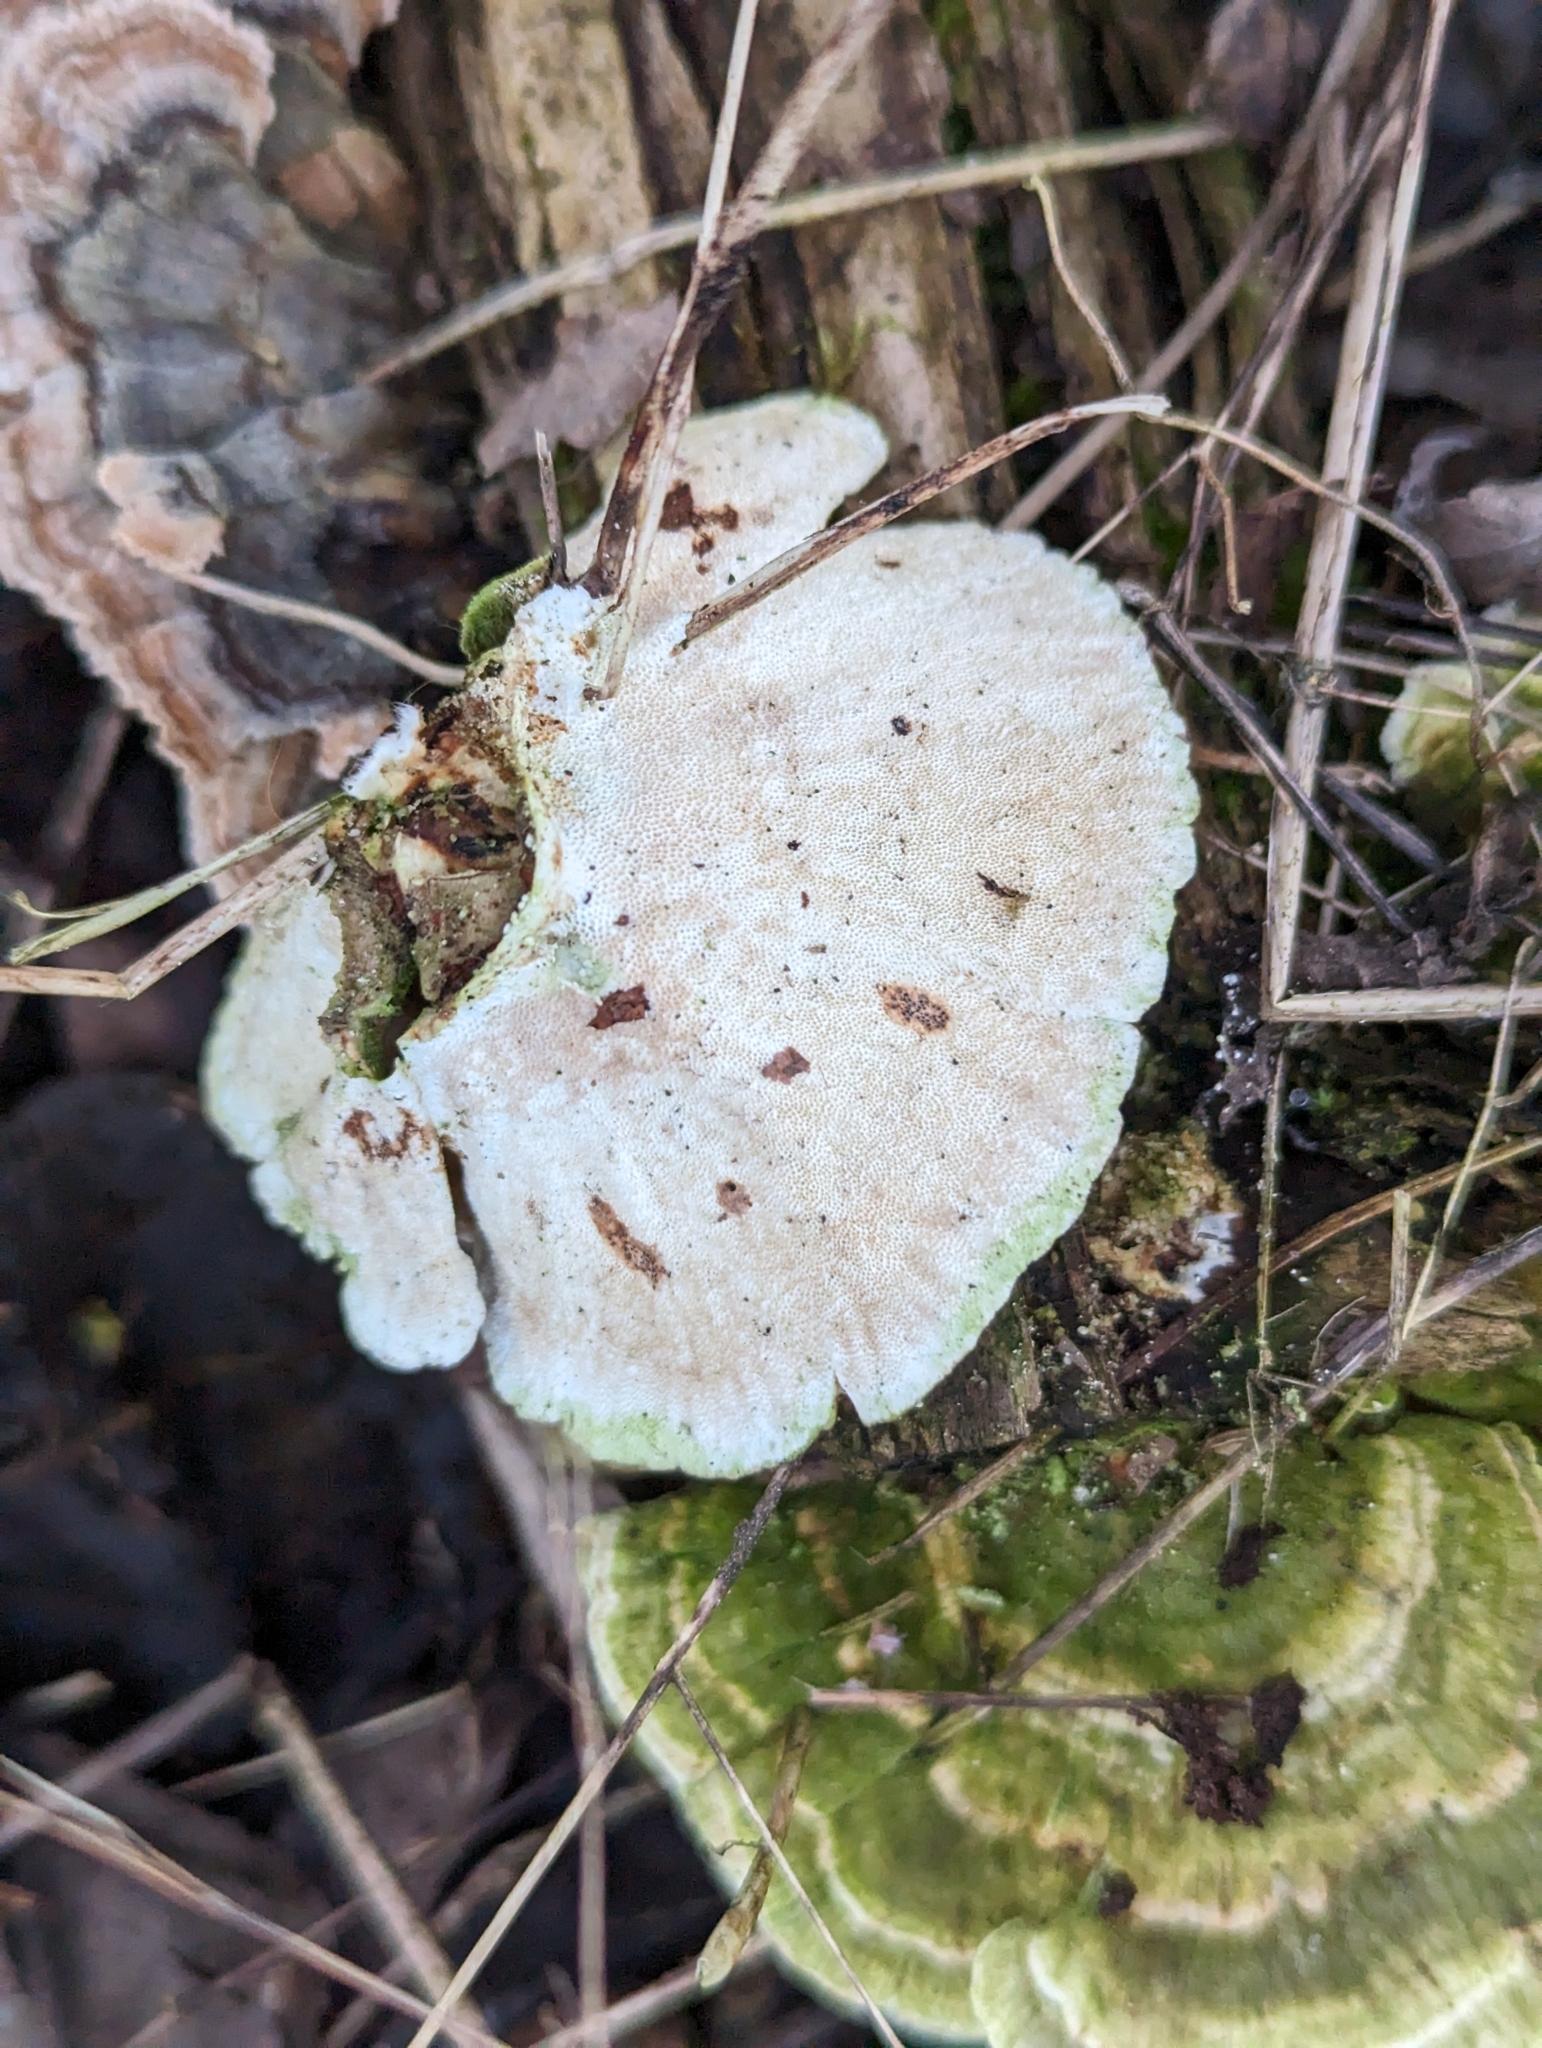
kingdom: Fungi
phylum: Basidiomycota
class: Agaricomycetes
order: Polyporales
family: Polyporaceae
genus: Trametes
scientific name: Trametes versicolor
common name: Turkeytail
